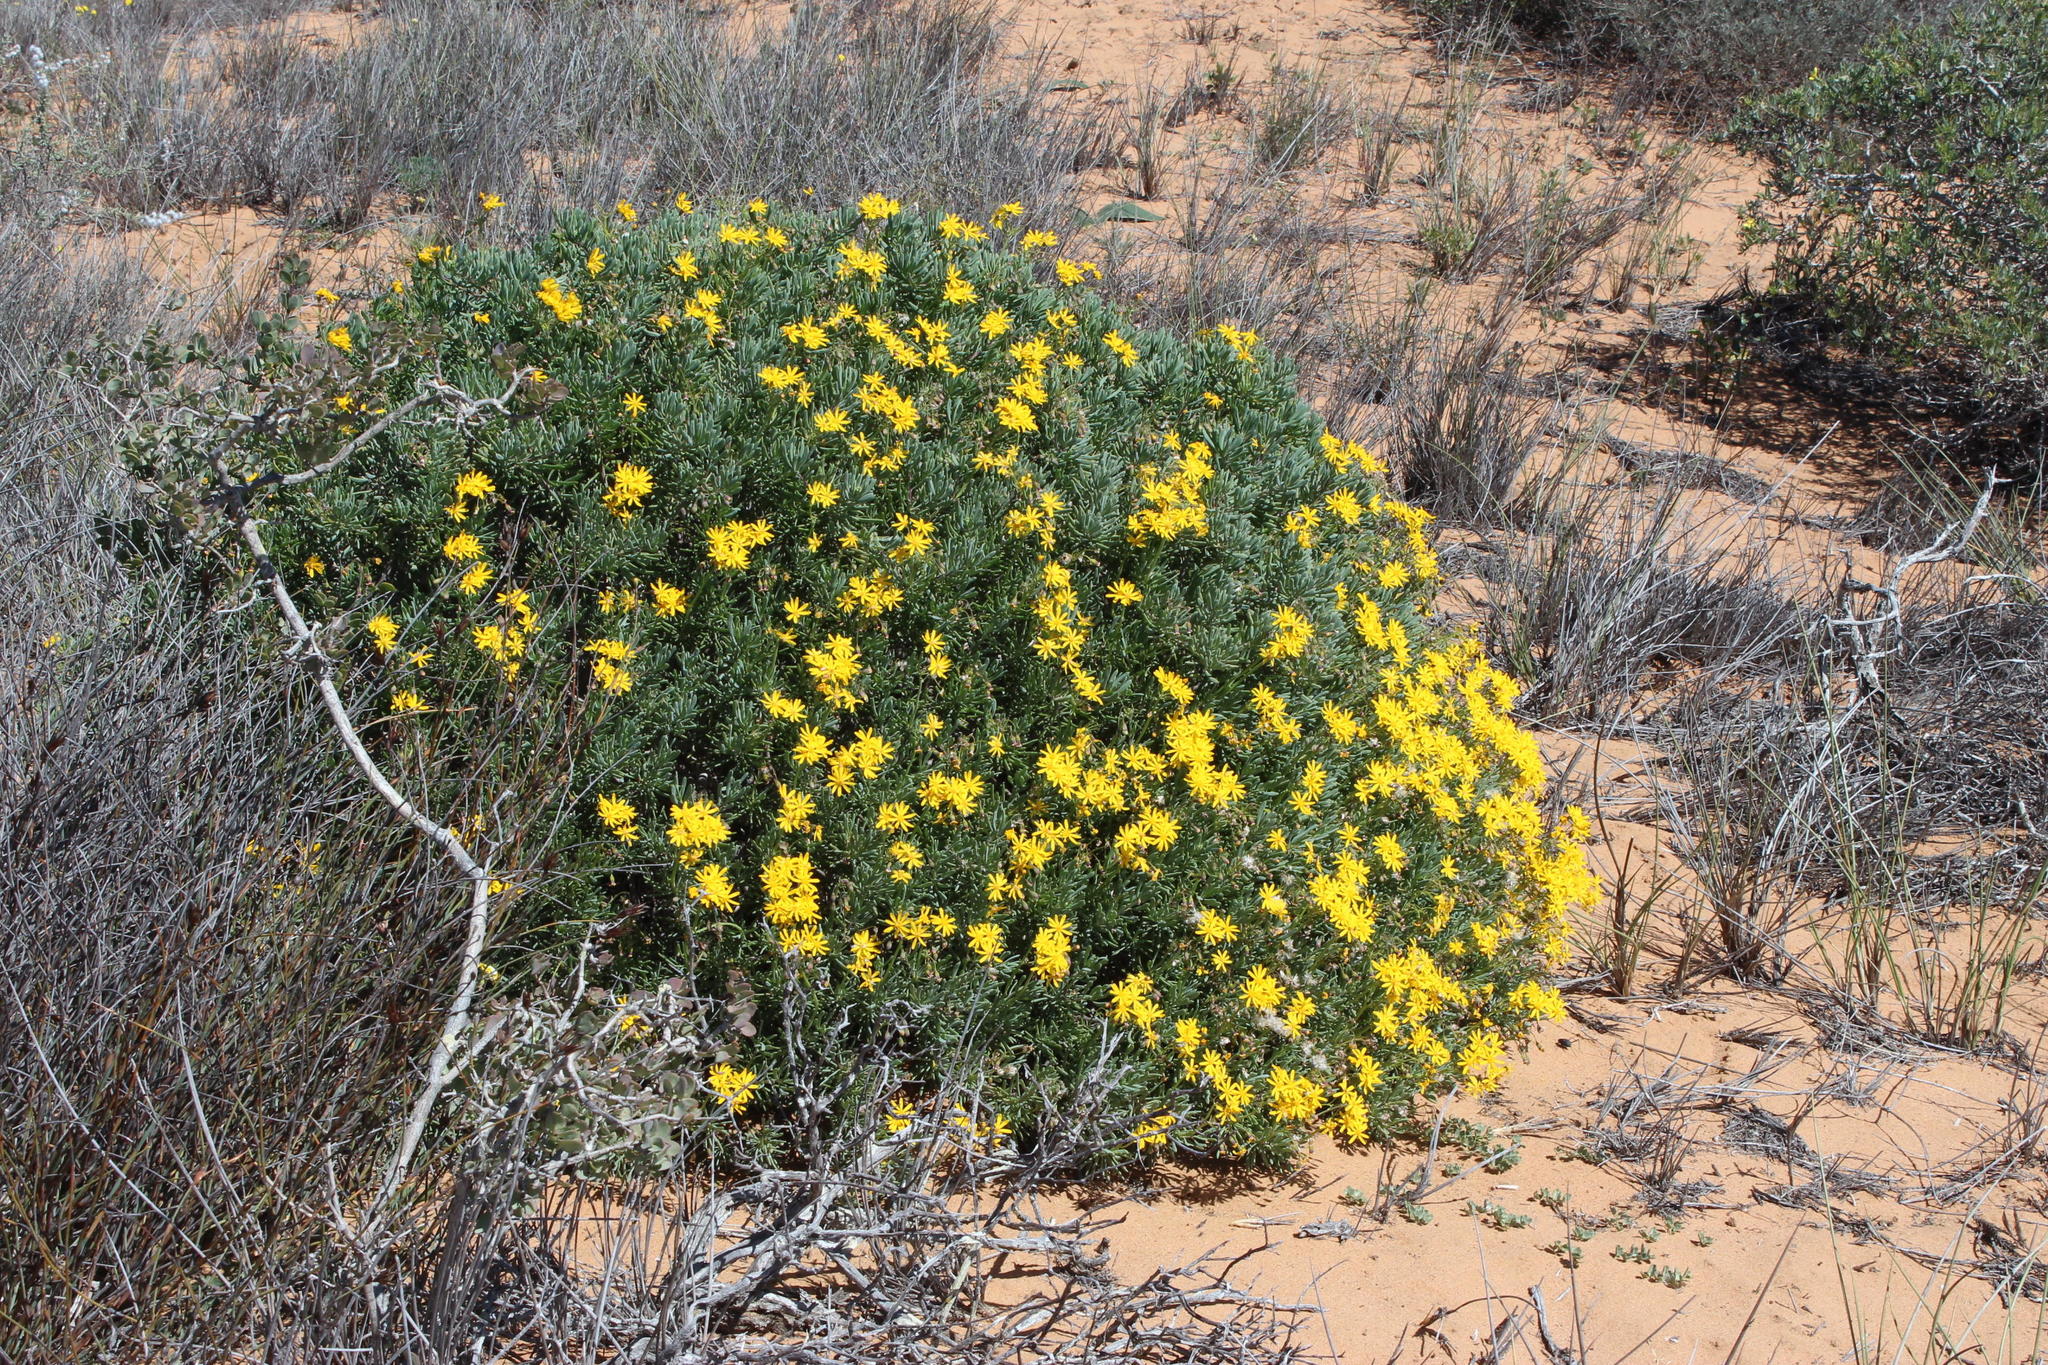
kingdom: Plantae
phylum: Tracheophyta
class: Magnoliopsida
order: Asterales
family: Asteraceae
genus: Osteospermum
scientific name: Osteospermum oppositifolium
